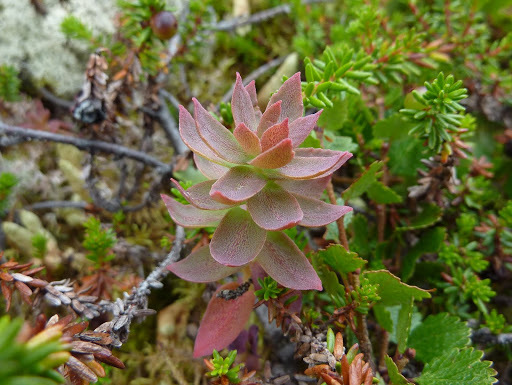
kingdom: Plantae
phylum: Tracheophyta
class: Magnoliopsida
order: Saxifragales
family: Crassulaceae
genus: Rhodiola
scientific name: Rhodiola integrifolia
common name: Western roseroot
